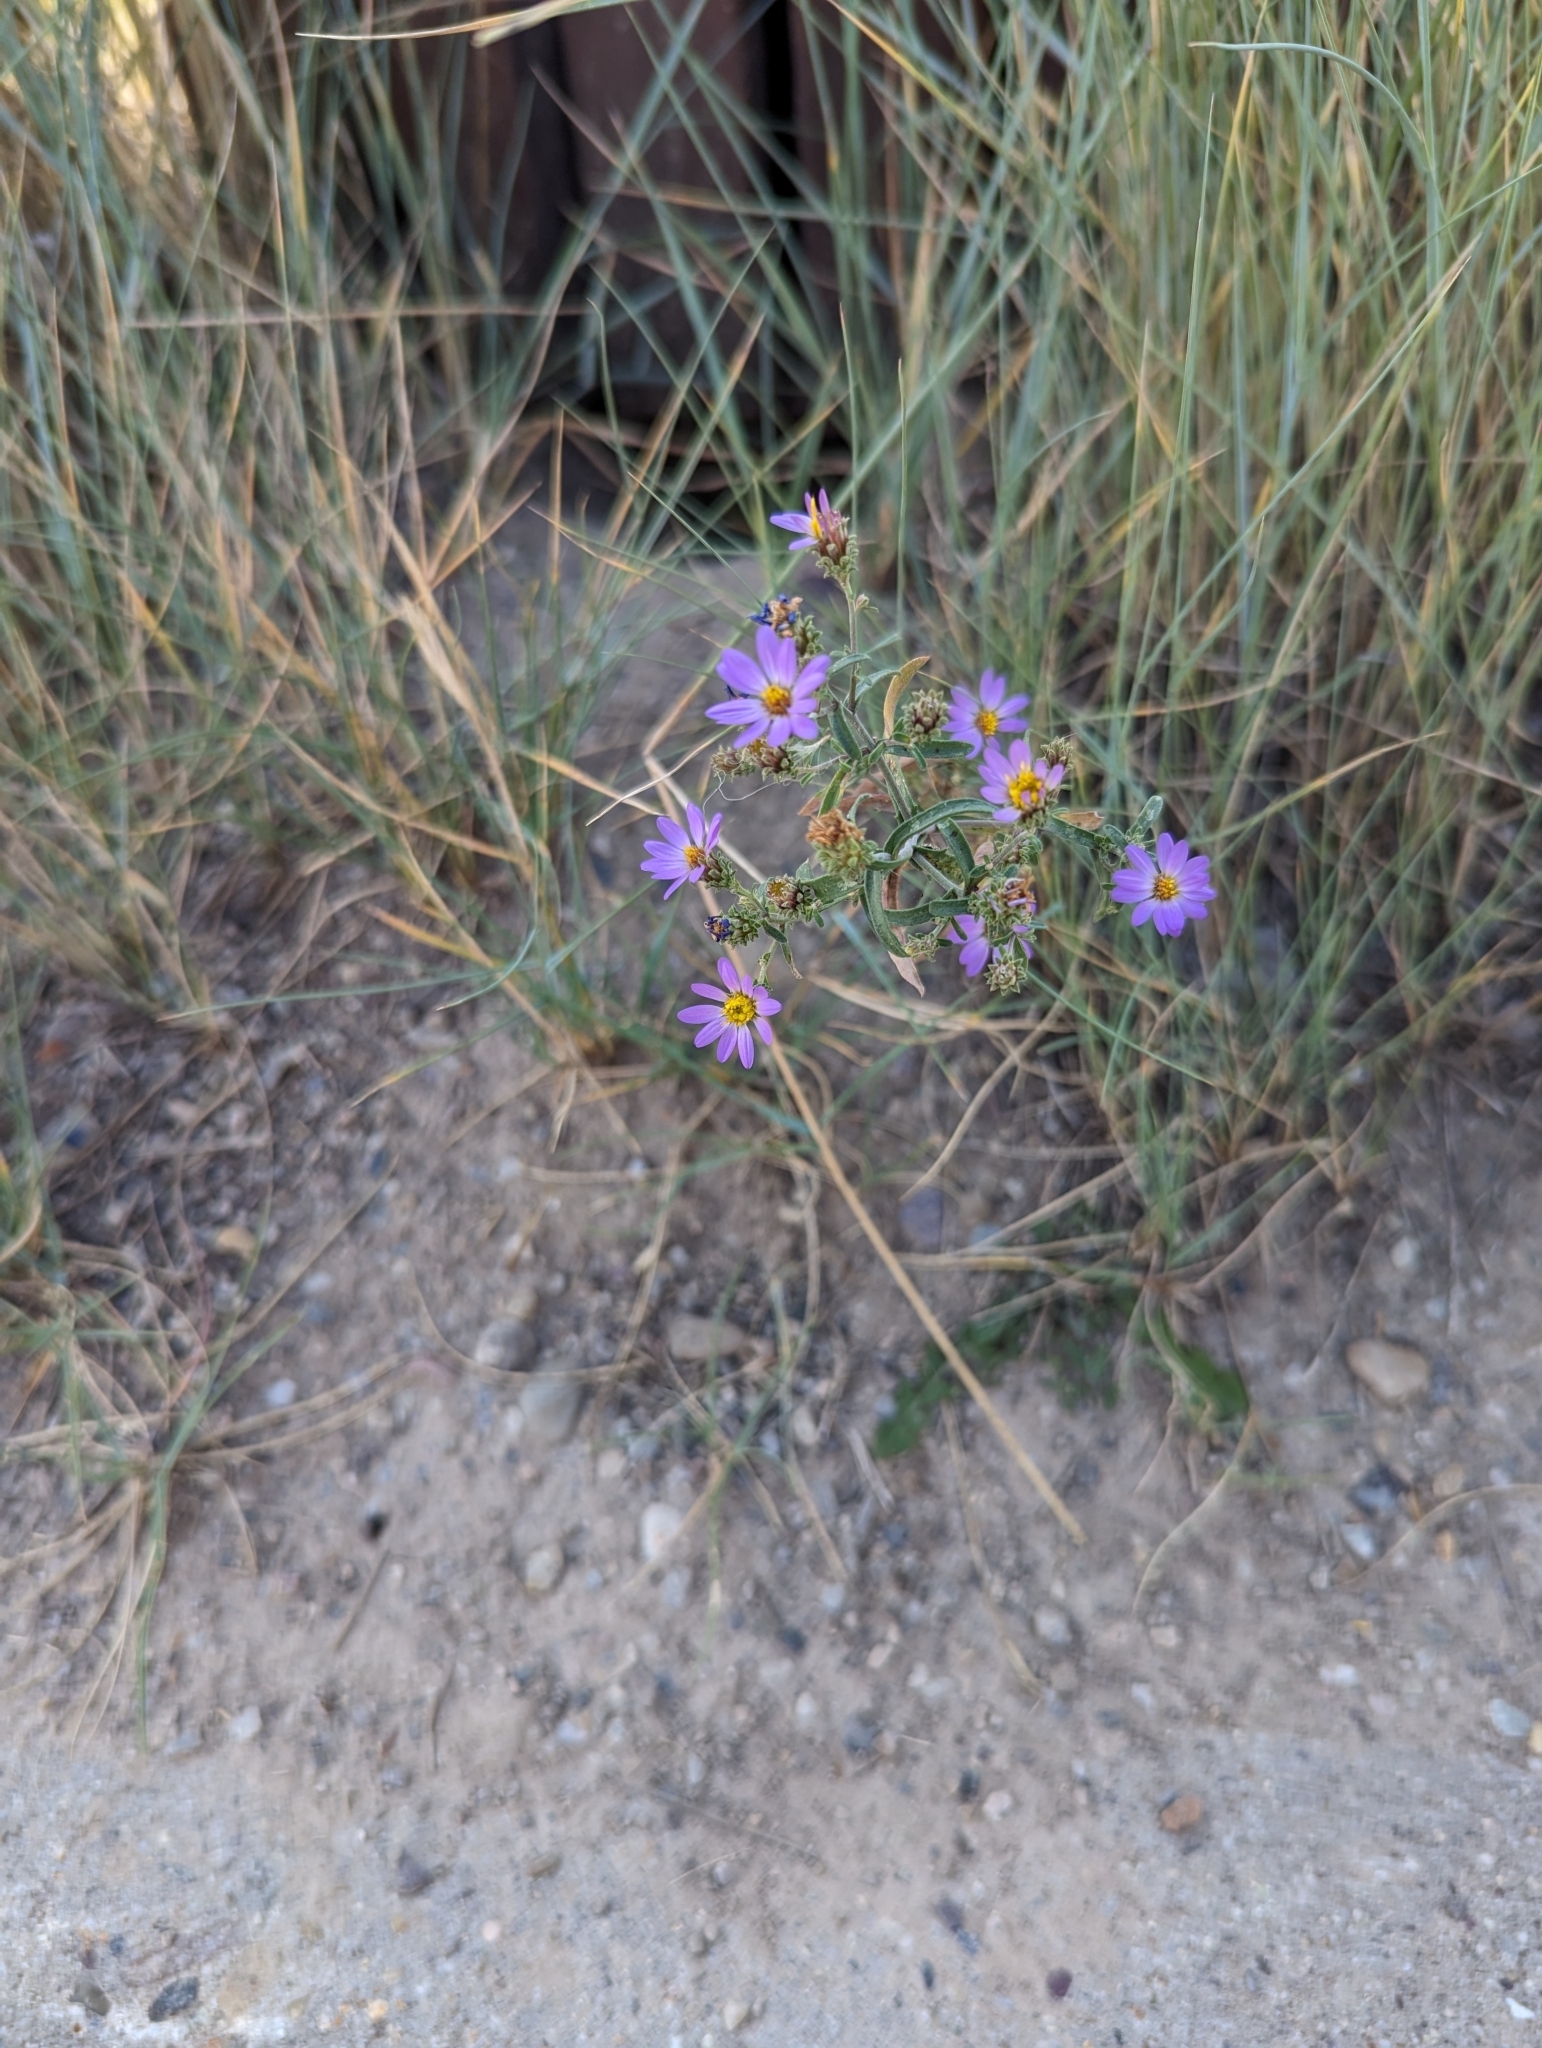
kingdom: Plantae
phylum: Tracheophyta
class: Magnoliopsida
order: Asterales
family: Asteraceae
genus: Dieteria
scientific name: Dieteria canescens
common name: Hoary-aster
